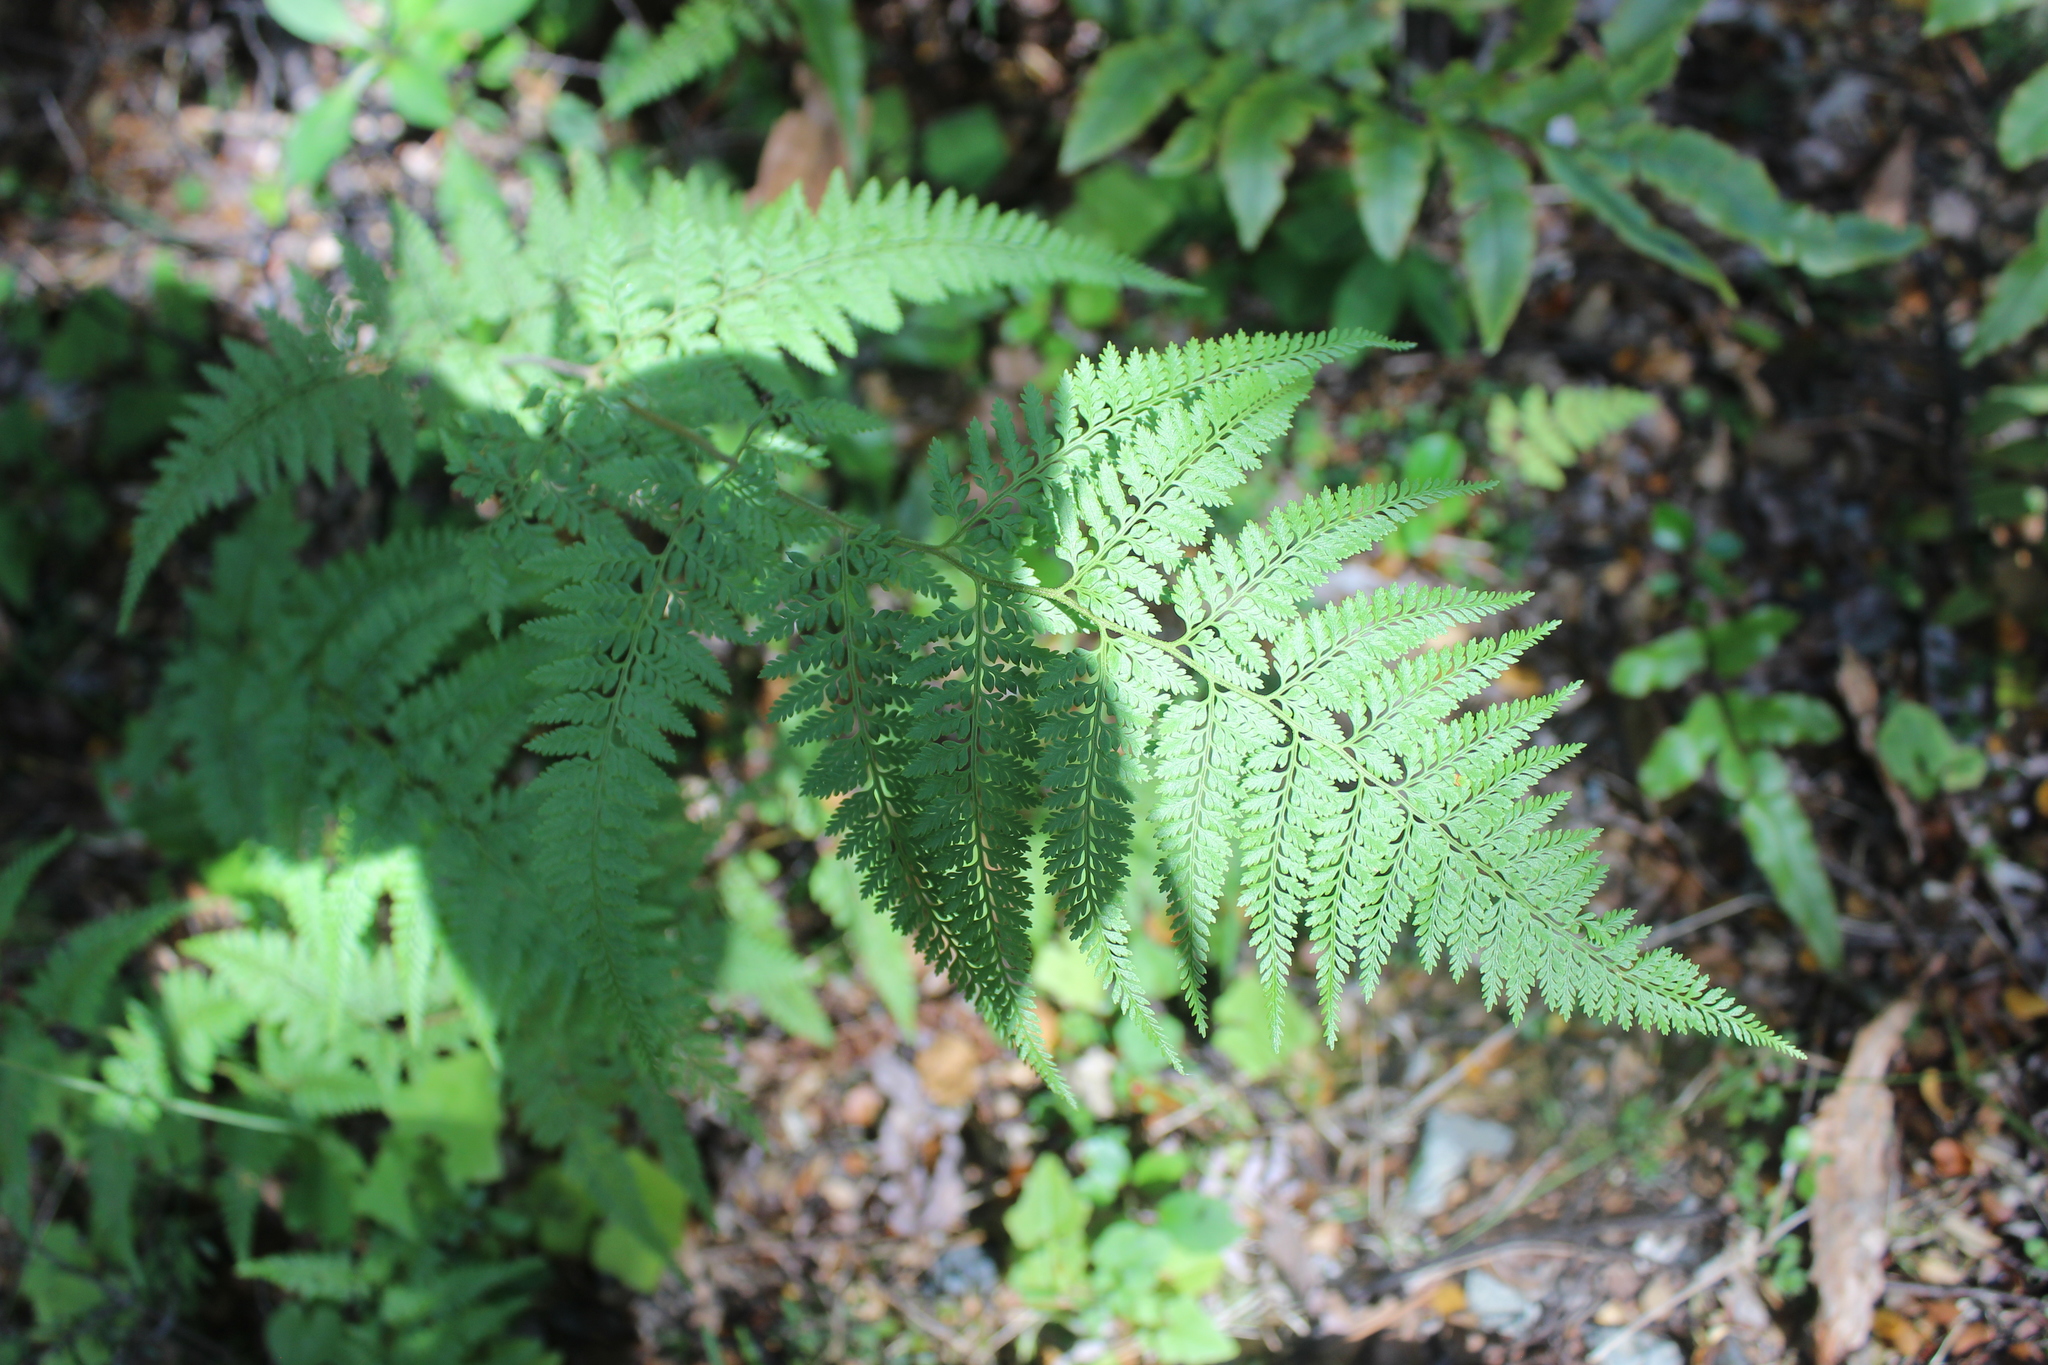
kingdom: Plantae
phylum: Tracheophyta
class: Polypodiopsida
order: Polypodiales
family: Dennstaedtiaceae
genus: Paesia
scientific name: Paesia scaberula
